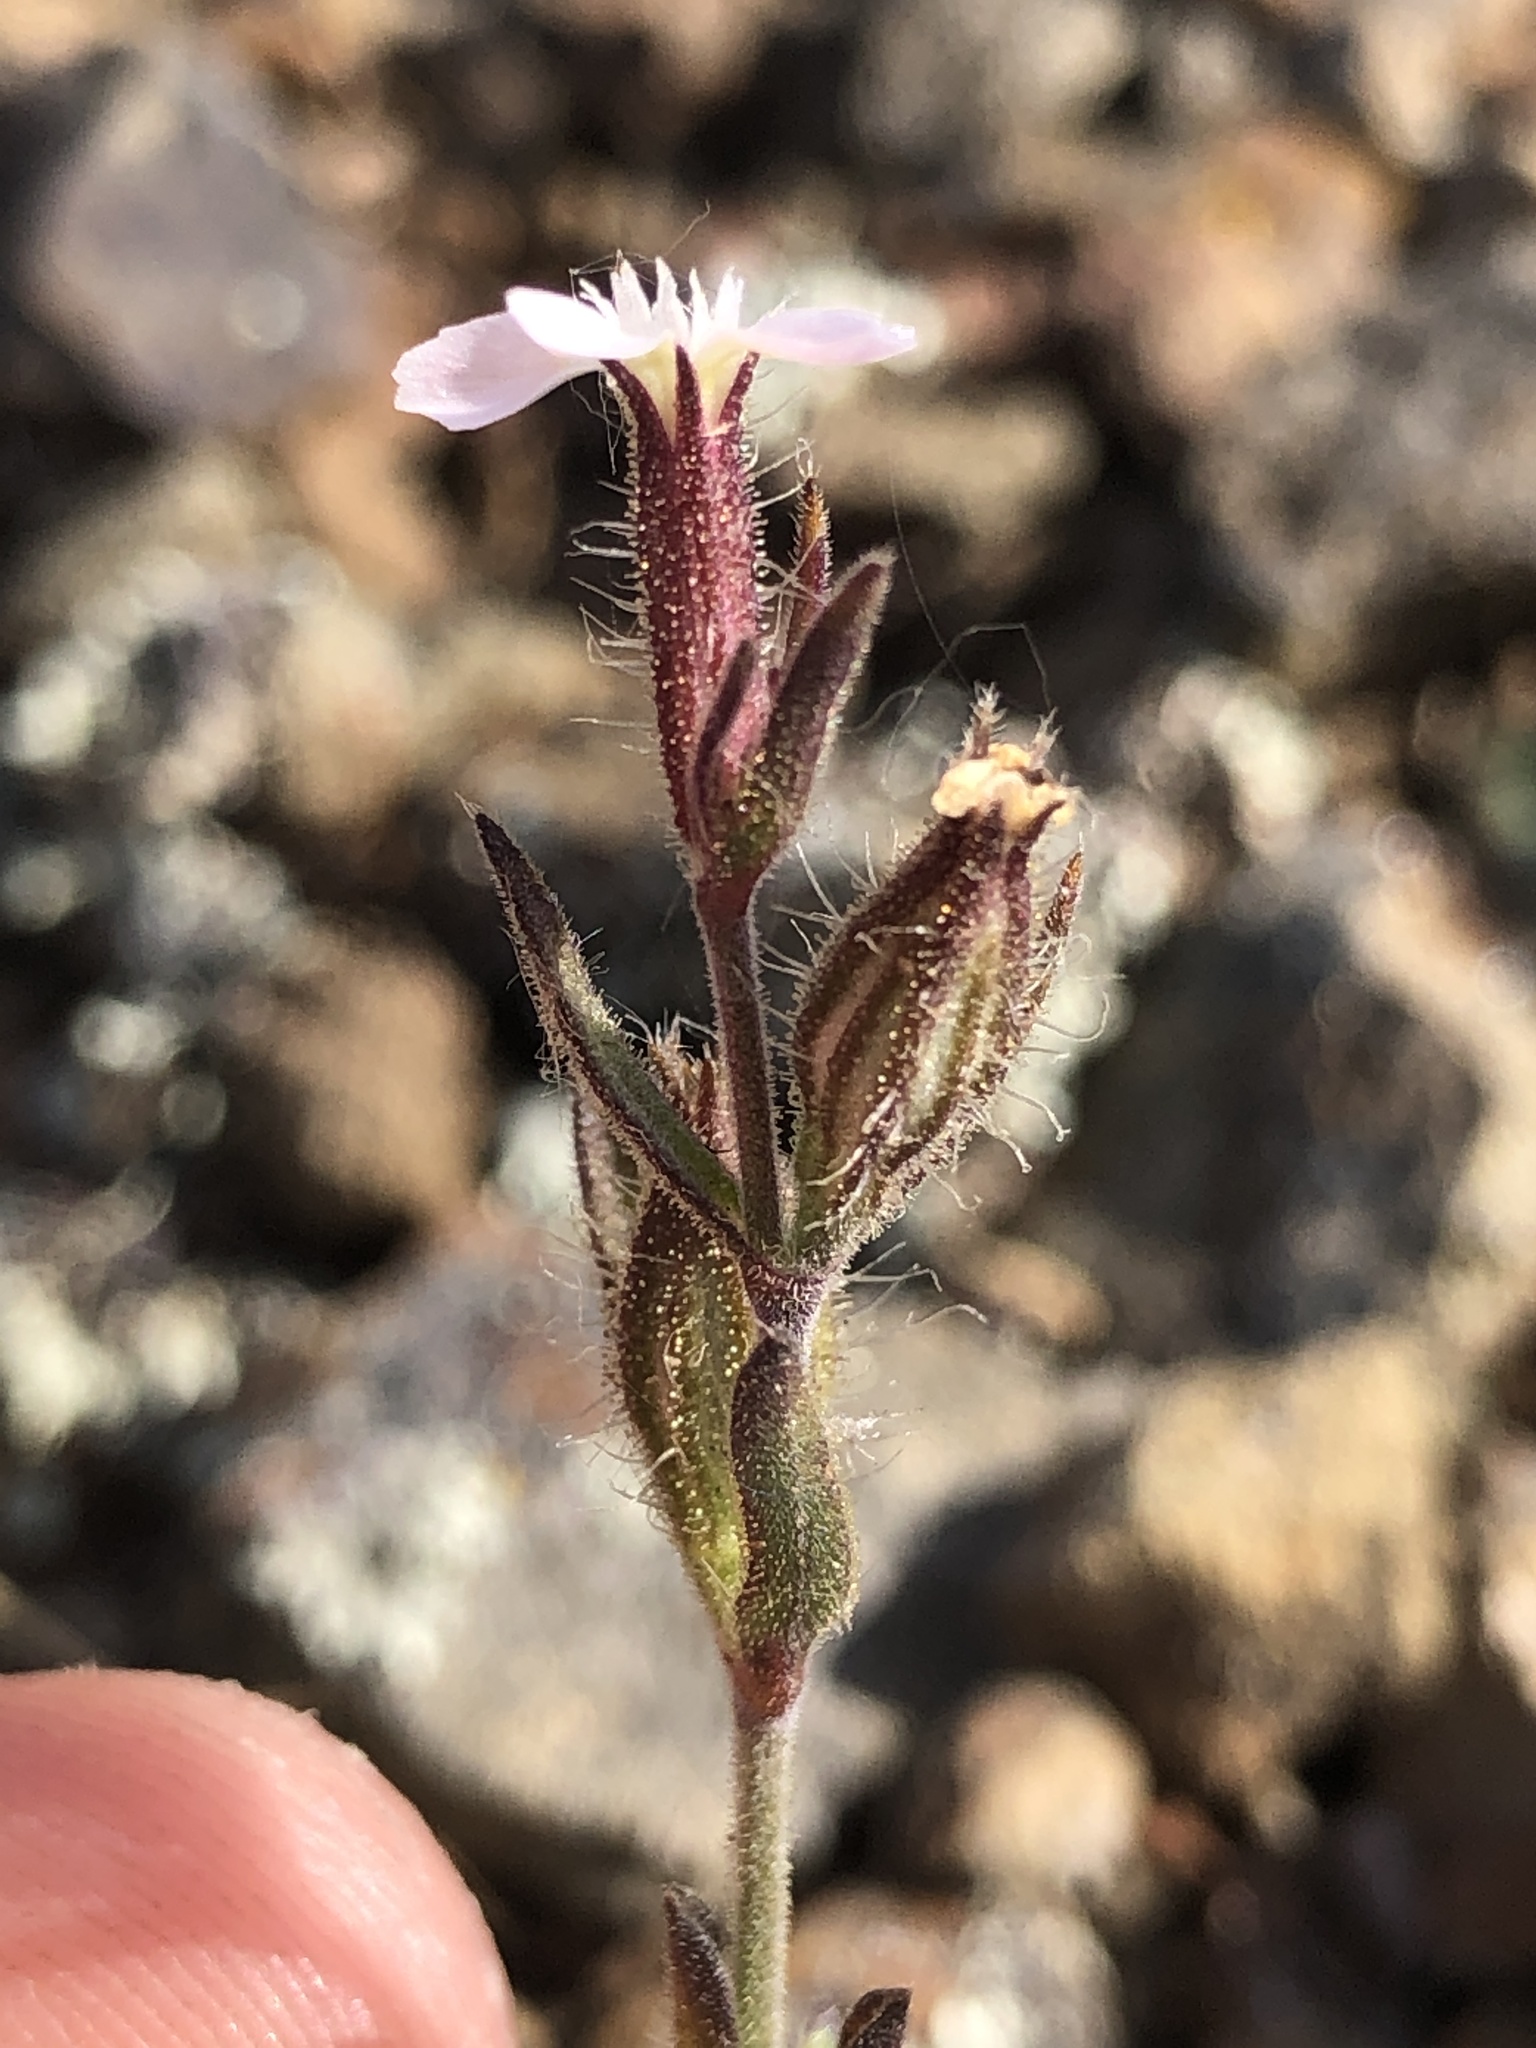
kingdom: Plantae
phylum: Tracheophyta
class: Magnoliopsida
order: Caryophyllales
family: Caryophyllaceae
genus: Silene
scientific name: Silene gallica
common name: Small-flowered catchfly
